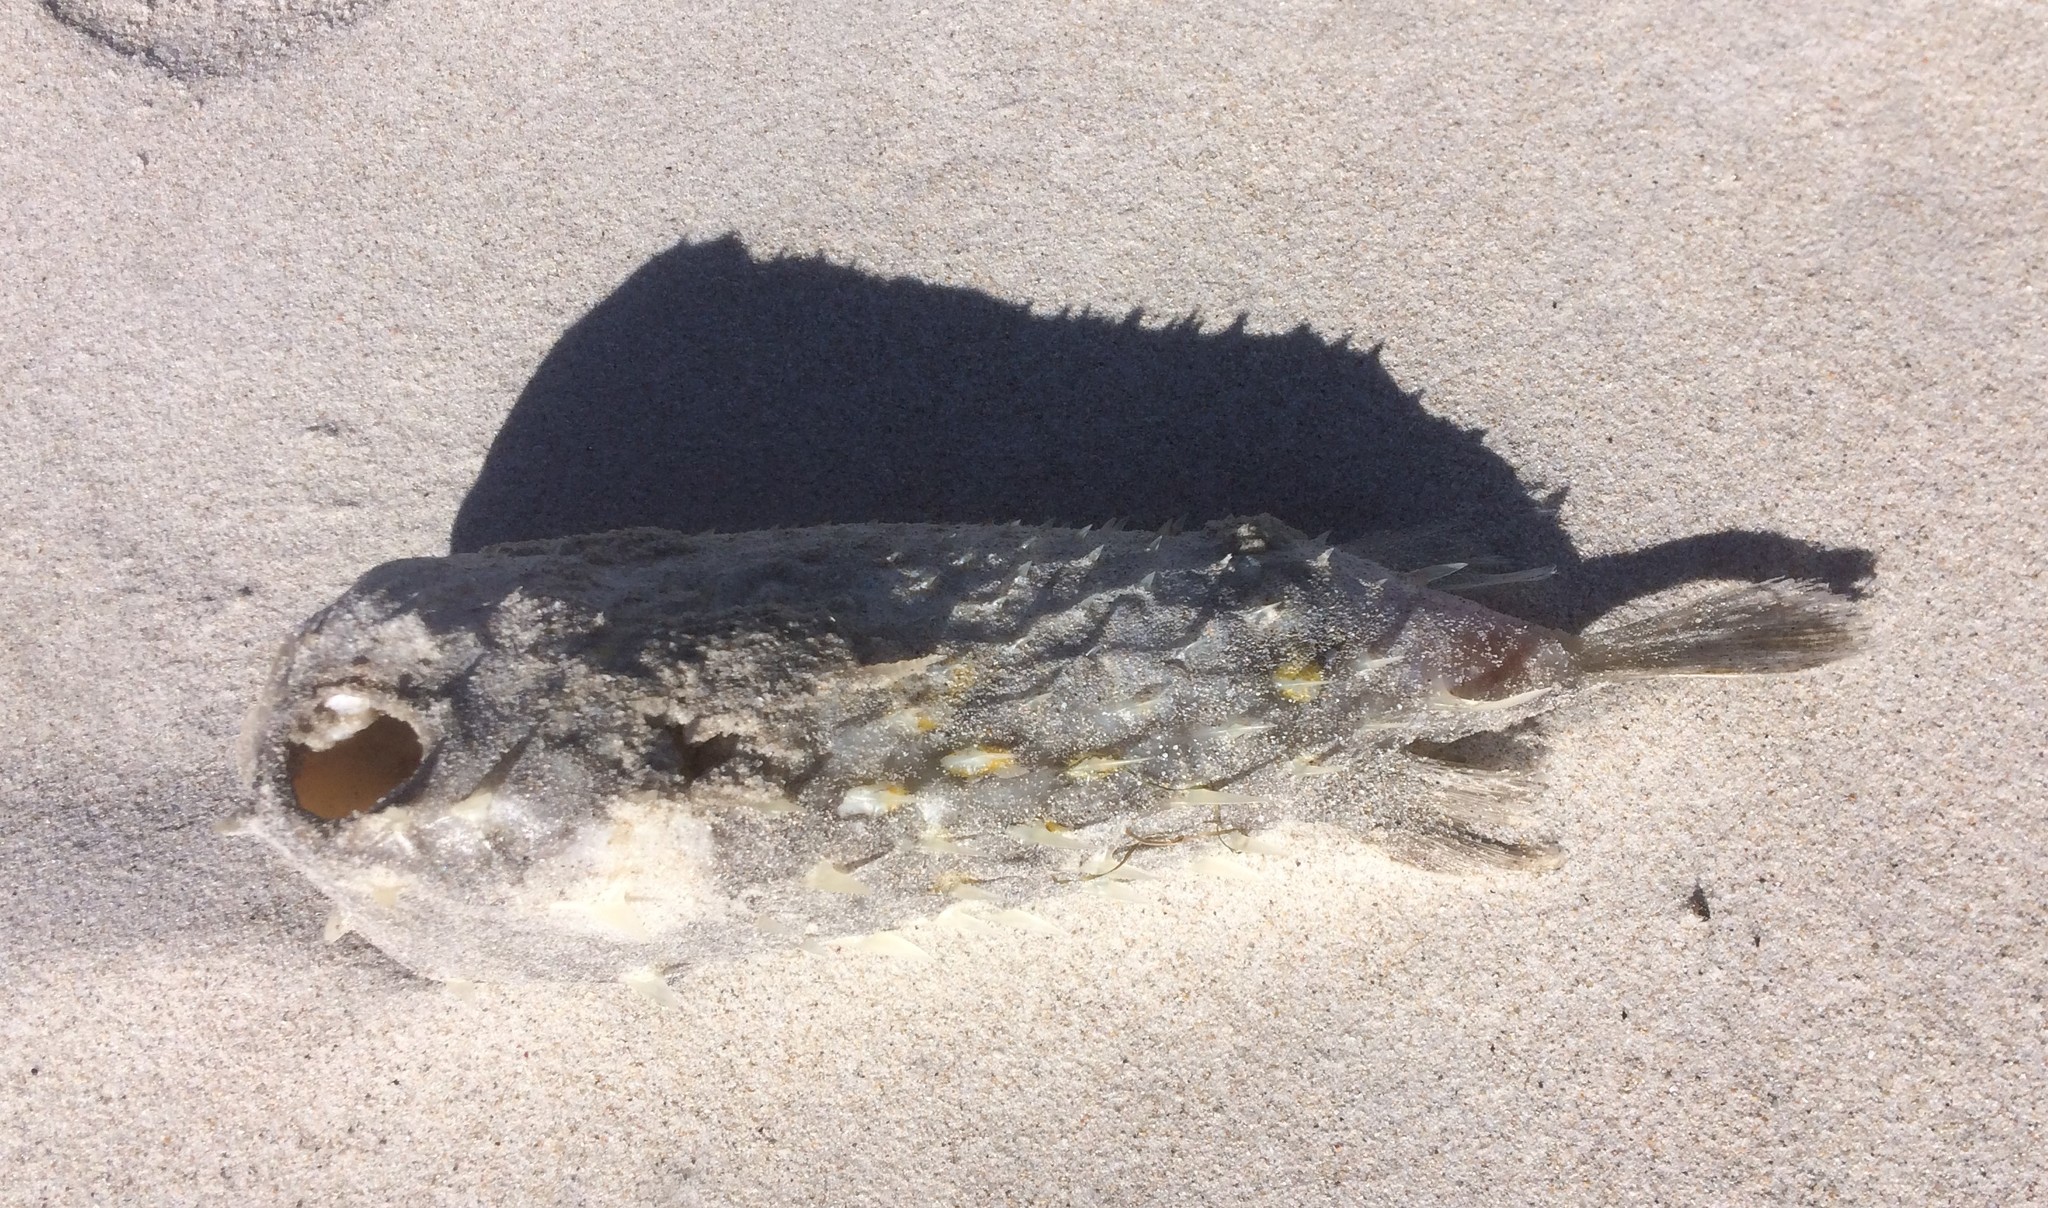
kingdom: Animalia
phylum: Chordata
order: Tetraodontiformes
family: Diodontidae
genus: Allomycterus
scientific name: Allomycterus pilatus
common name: No common name
